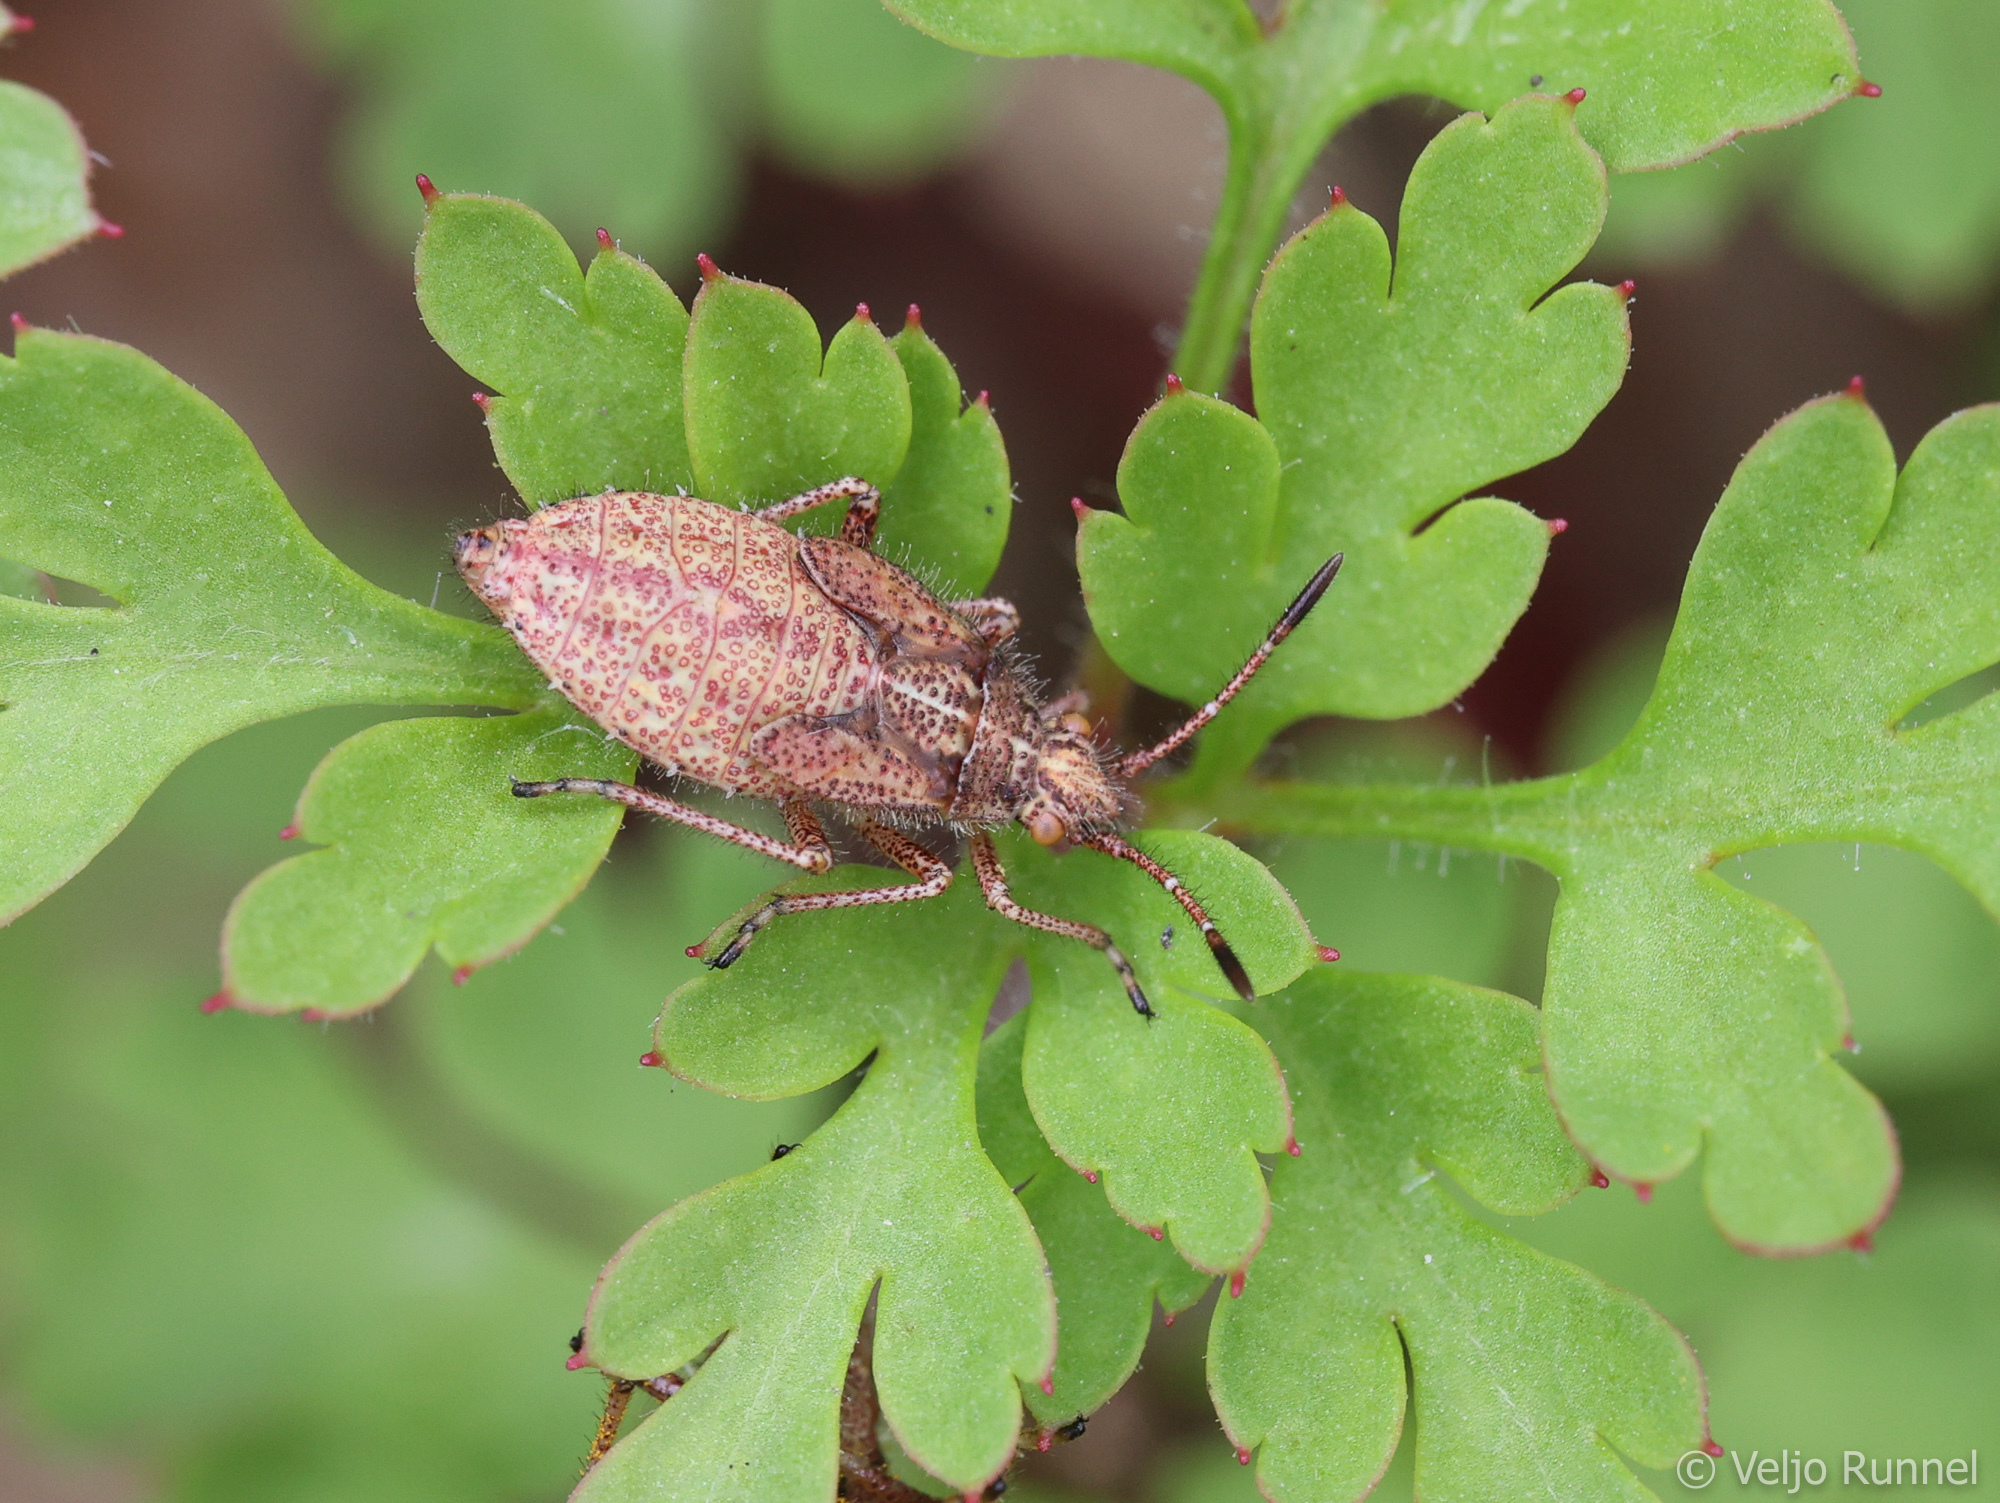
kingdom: Animalia
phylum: Arthropoda
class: Insecta
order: Hemiptera
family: Rhopalidae
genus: Corizus
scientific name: Corizus hyoscyami
